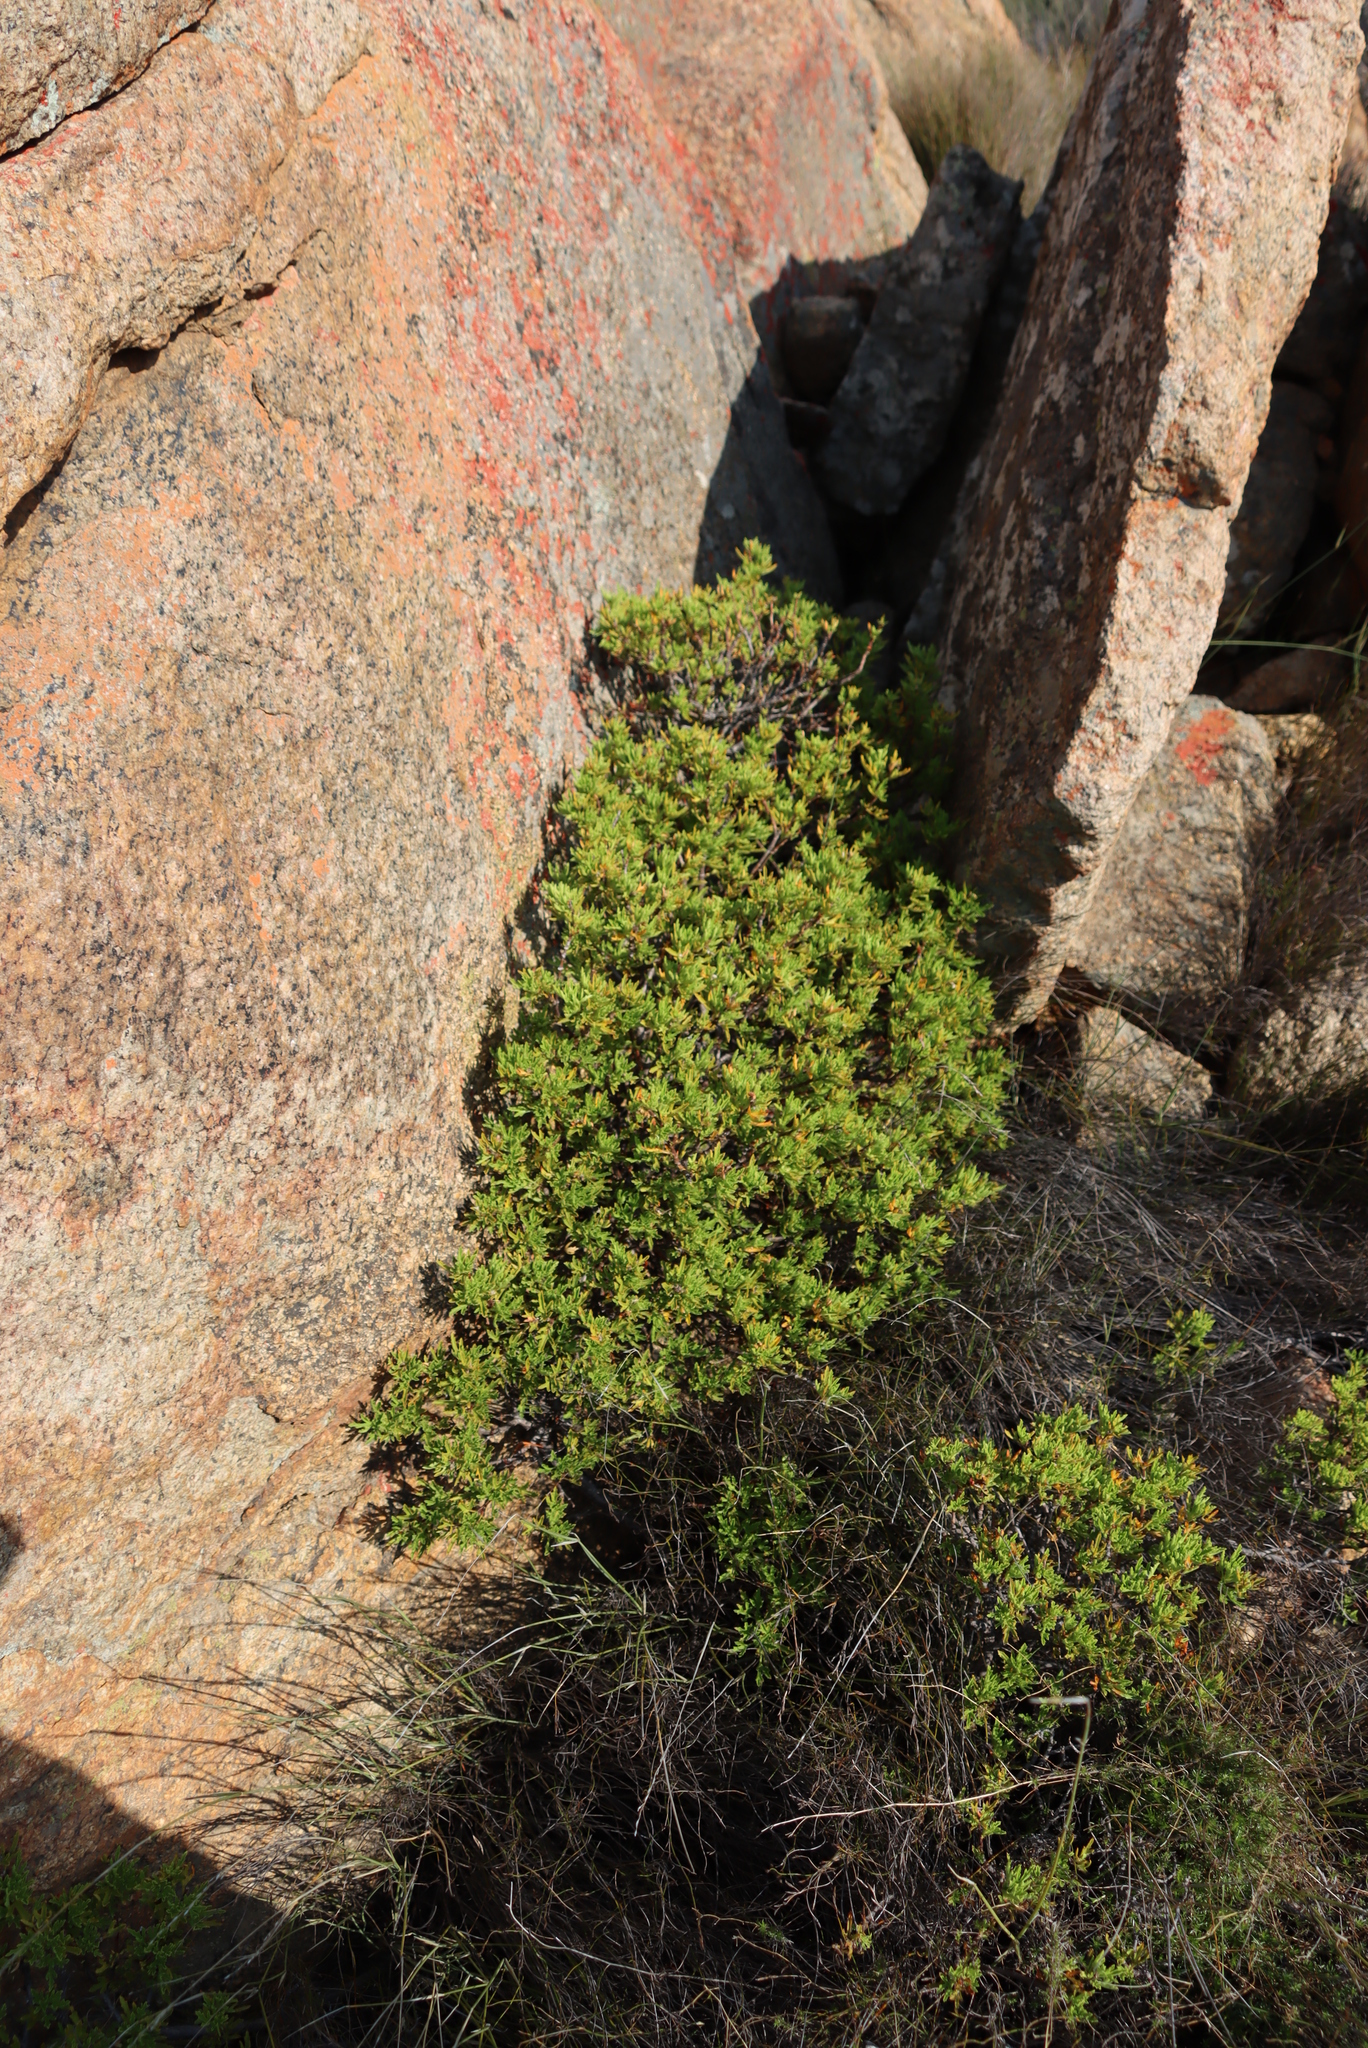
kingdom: Plantae
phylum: Tracheophyta
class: Magnoliopsida
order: Geraniales
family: Geraniaceae
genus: Pelargonium
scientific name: Pelargonium scabrum
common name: Apricot geranium
